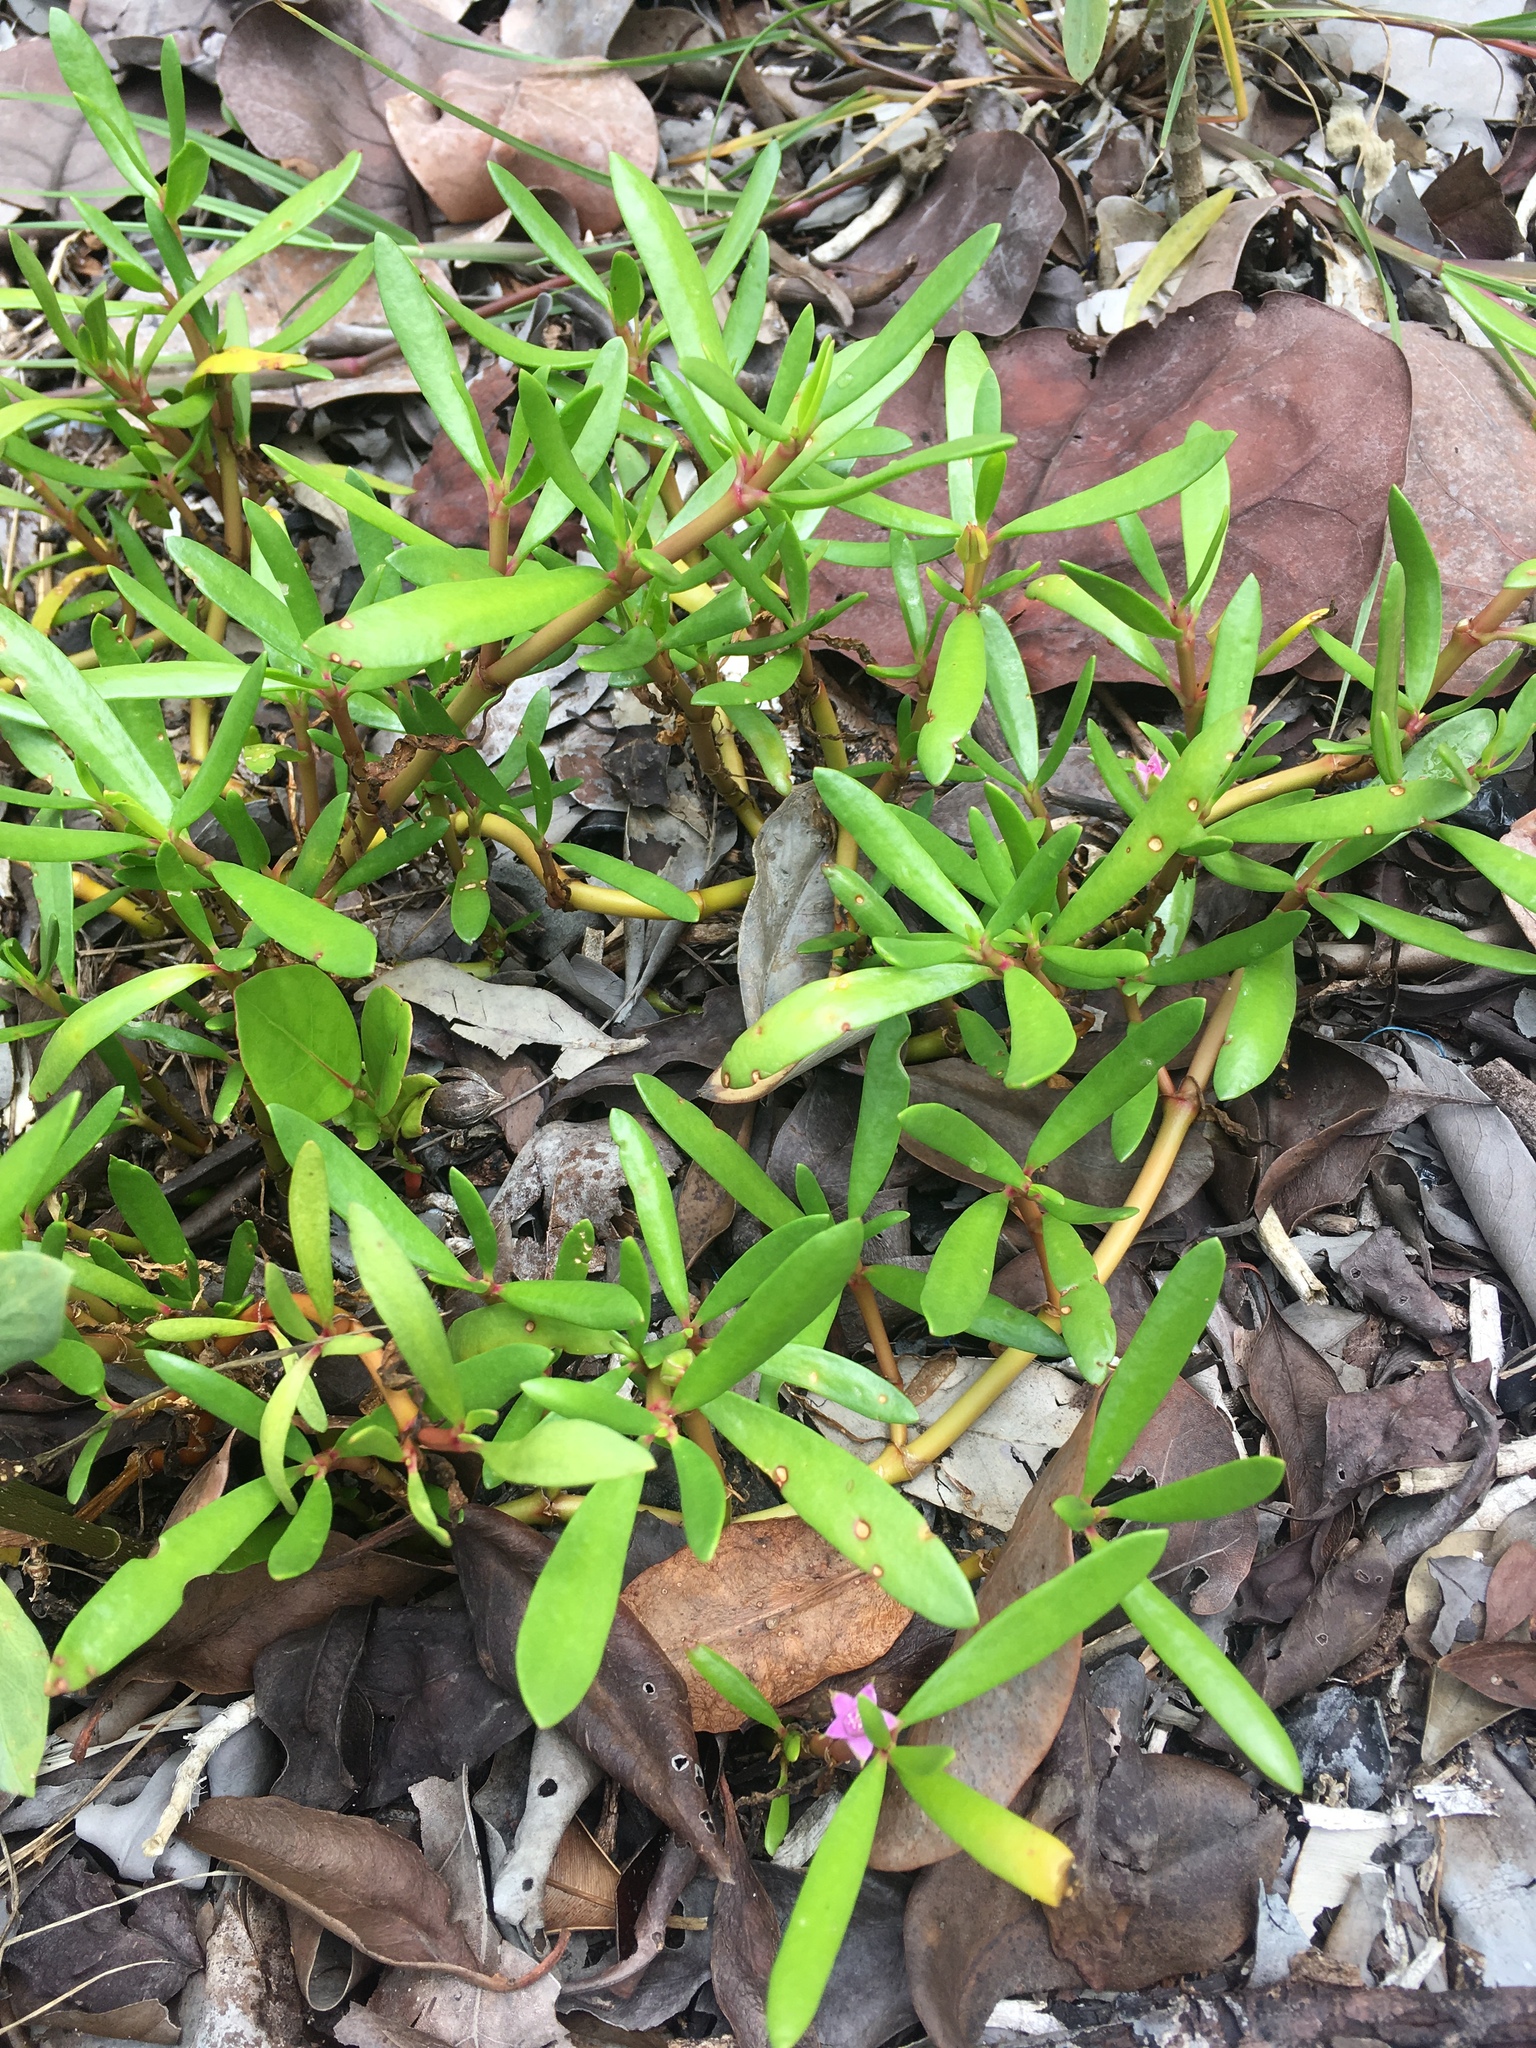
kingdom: Plantae
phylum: Tracheophyta
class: Magnoliopsida
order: Caryophyllales
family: Aizoaceae
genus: Sesuvium
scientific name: Sesuvium portulacastrum
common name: Sea-purslane
